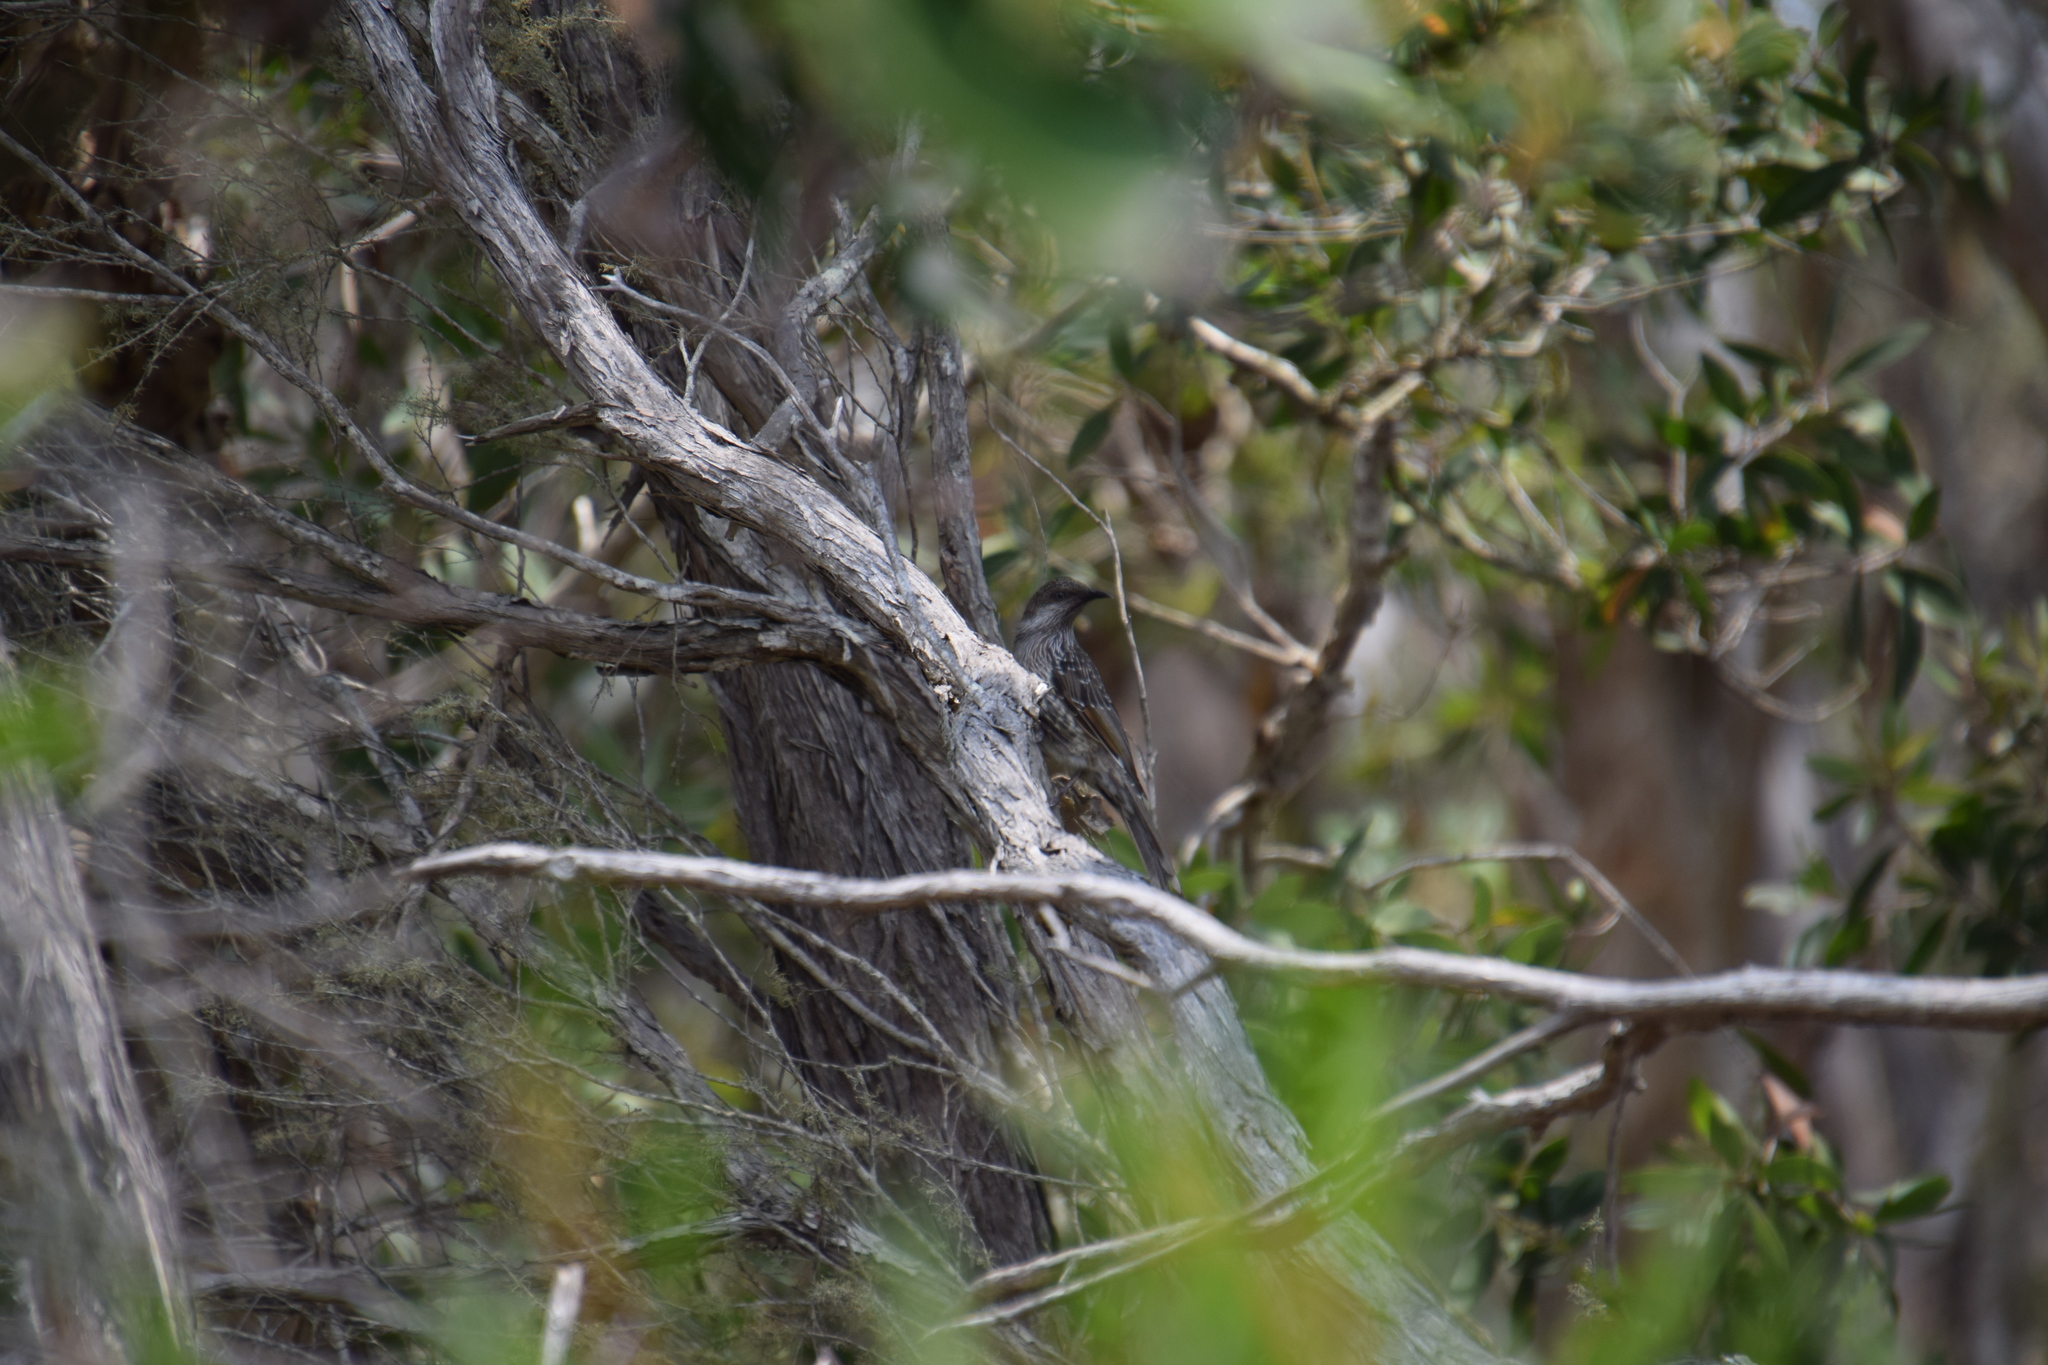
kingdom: Animalia
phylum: Chordata
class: Aves
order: Passeriformes
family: Meliphagidae
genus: Anthochaera
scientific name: Anthochaera chrysoptera
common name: Little wattlebird
